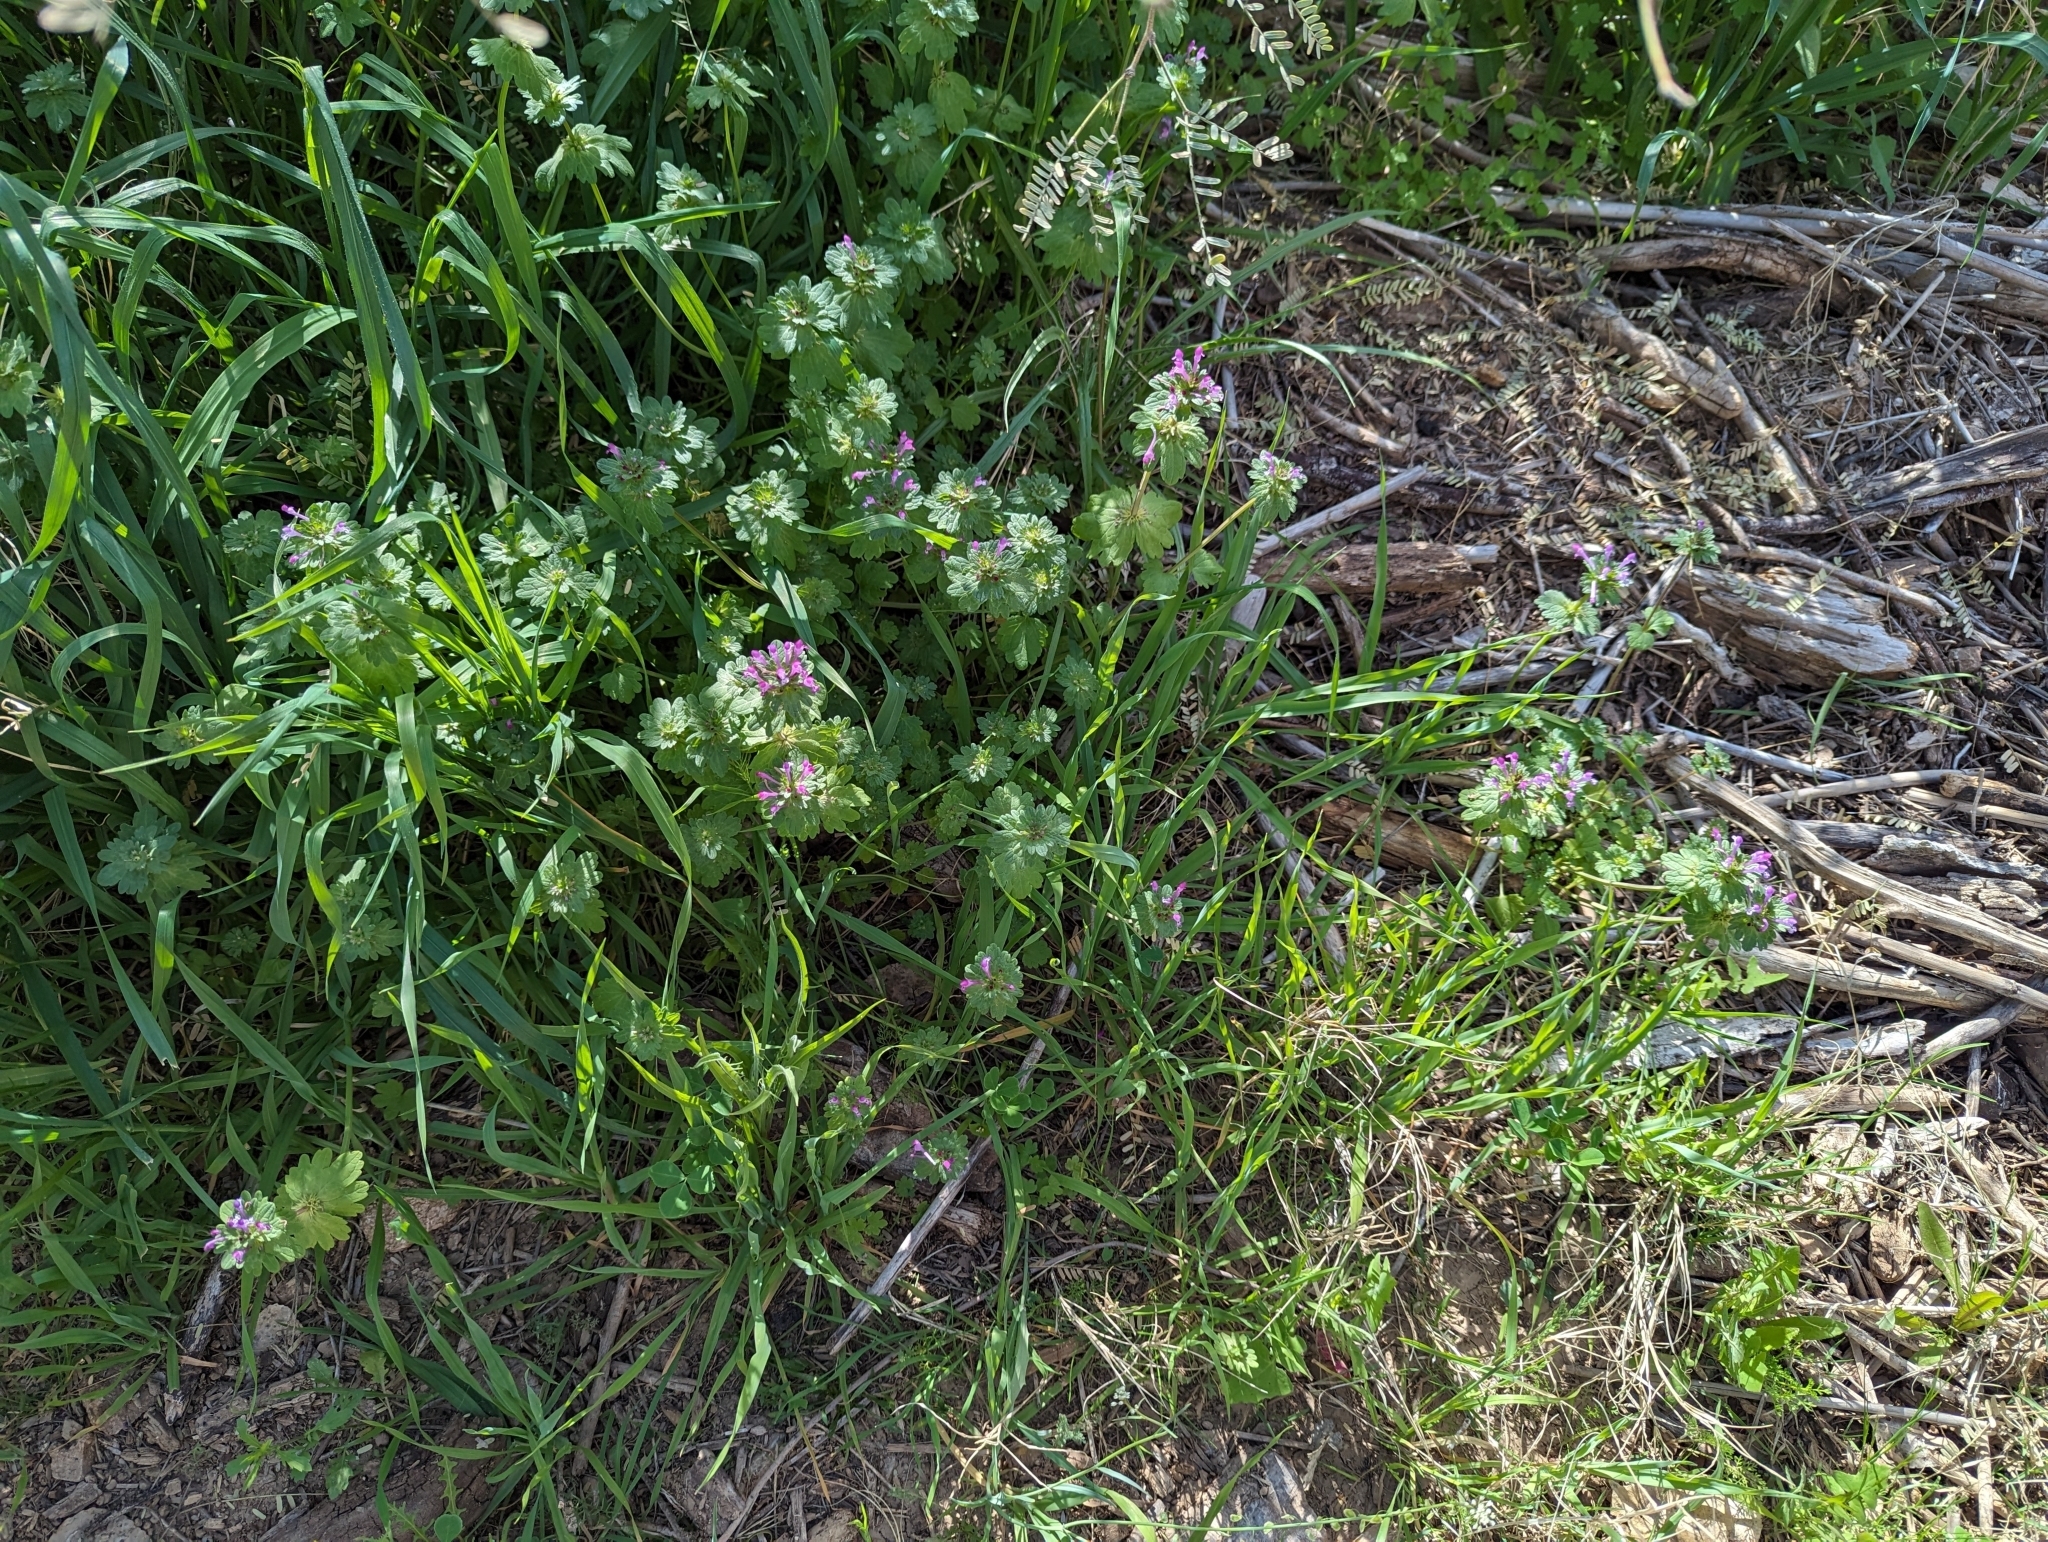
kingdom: Plantae
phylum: Tracheophyta
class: Magnoliopsida
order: Lamiales
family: Lamiaceae
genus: Lamium
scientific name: Lamium amplexicaule
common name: Henbit dead-nettle
